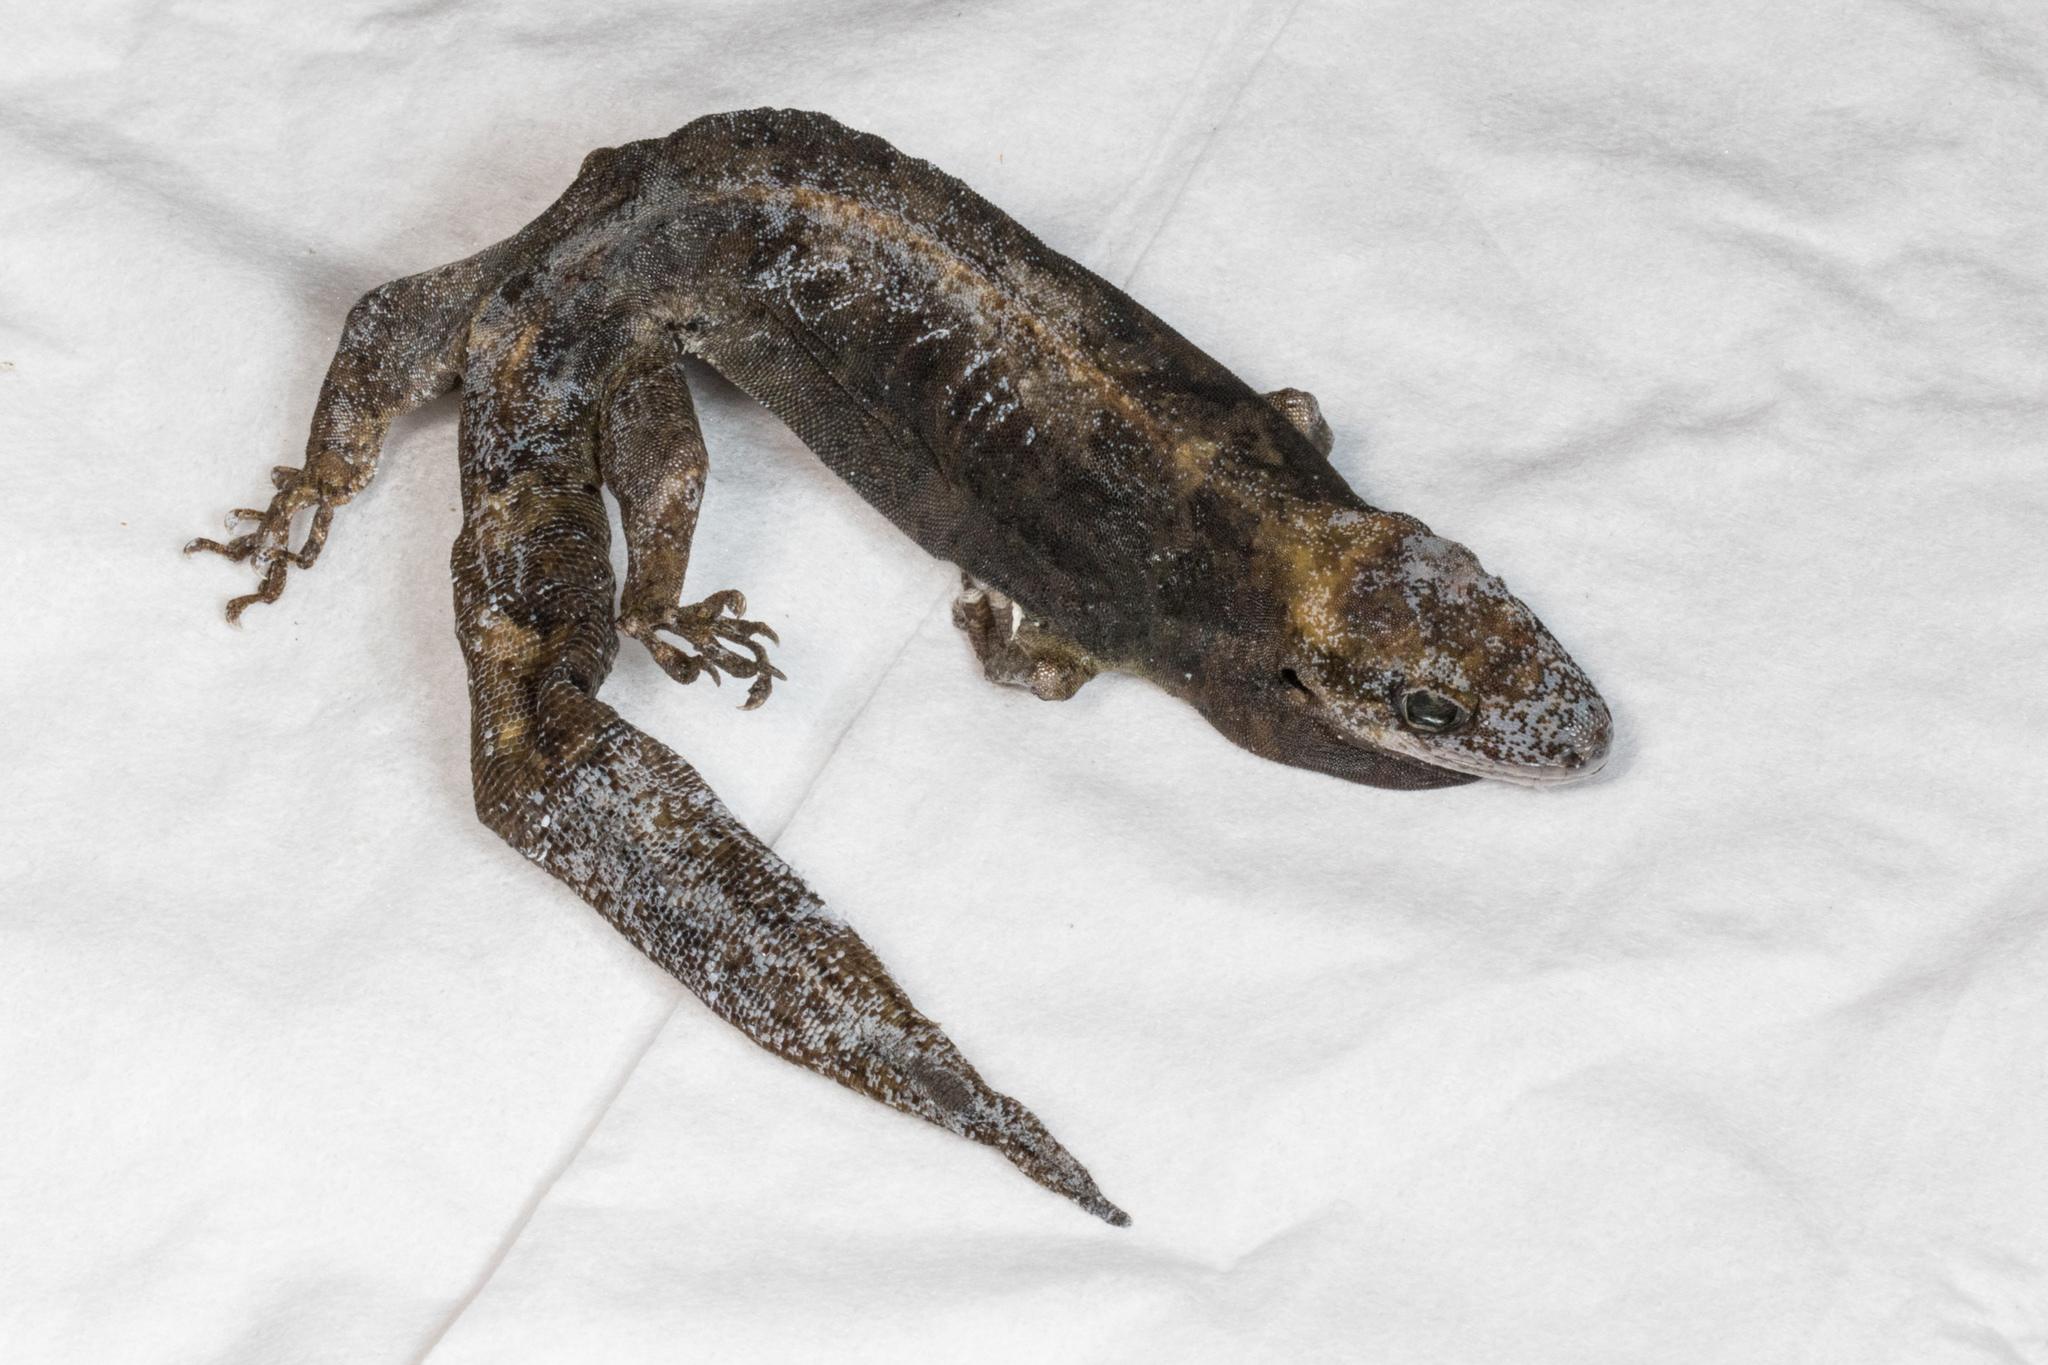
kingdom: Animalia
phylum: Chordata
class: Squamata
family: Diplodactylidae
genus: Dactylocnemis
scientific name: Dactylocnemis pacificus
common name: Pacific gecko
